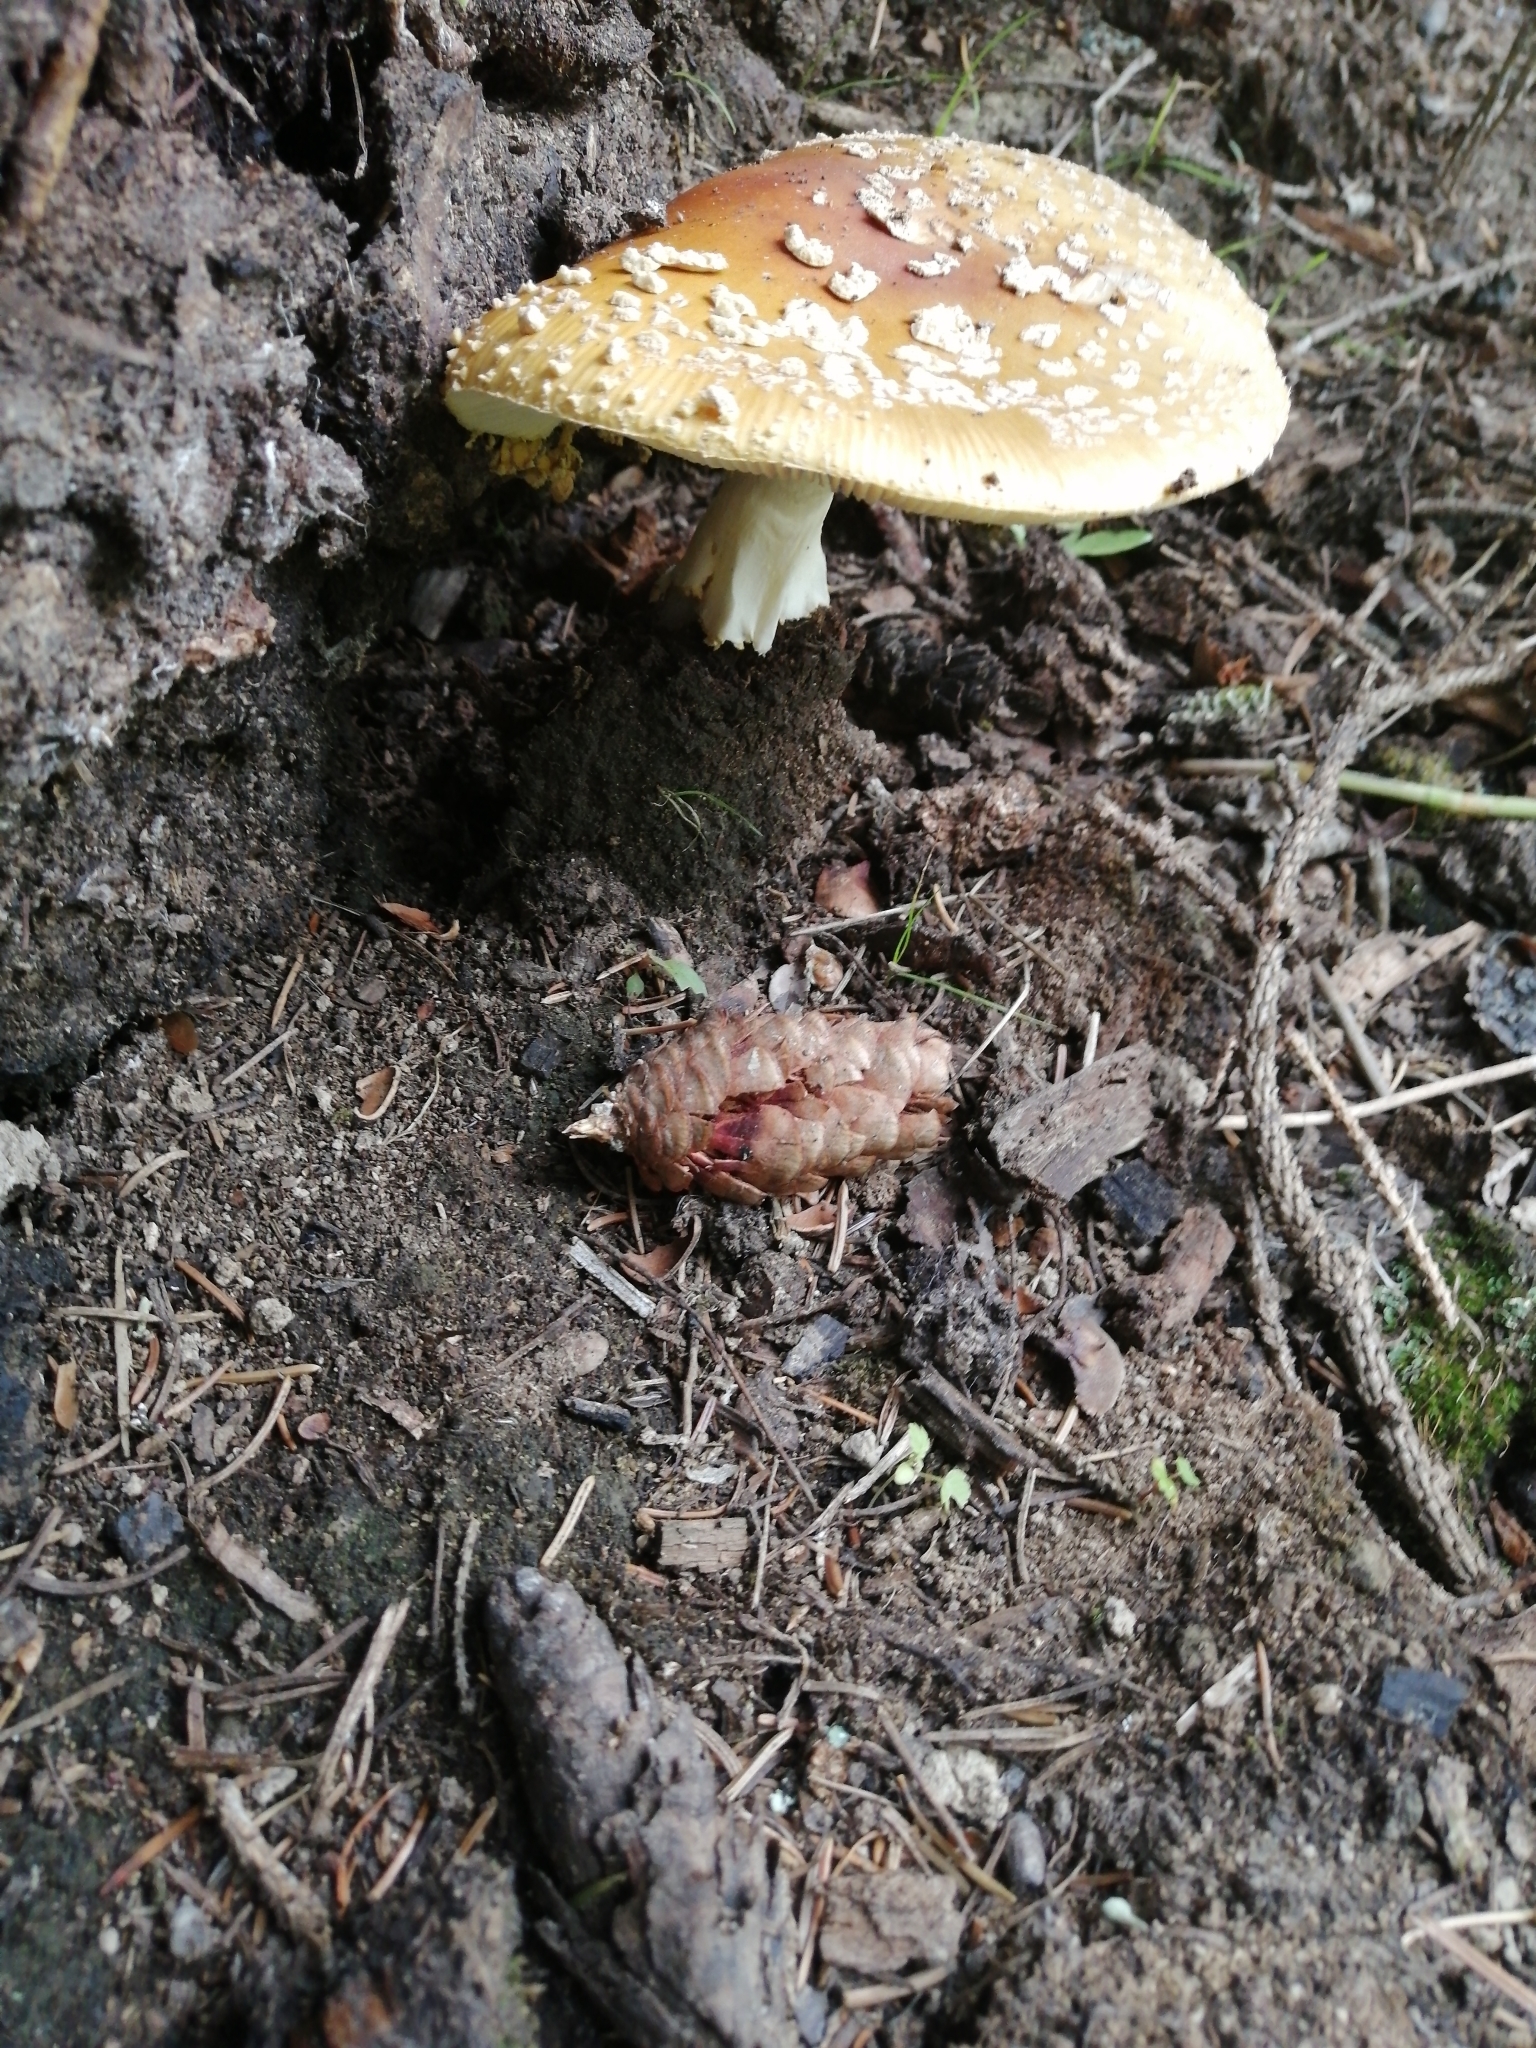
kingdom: Fungi
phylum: Basidiomycota
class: Agaricomycetes
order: Agaricales
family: Amanitaceae
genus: Amanita
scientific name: Amanita regalis
